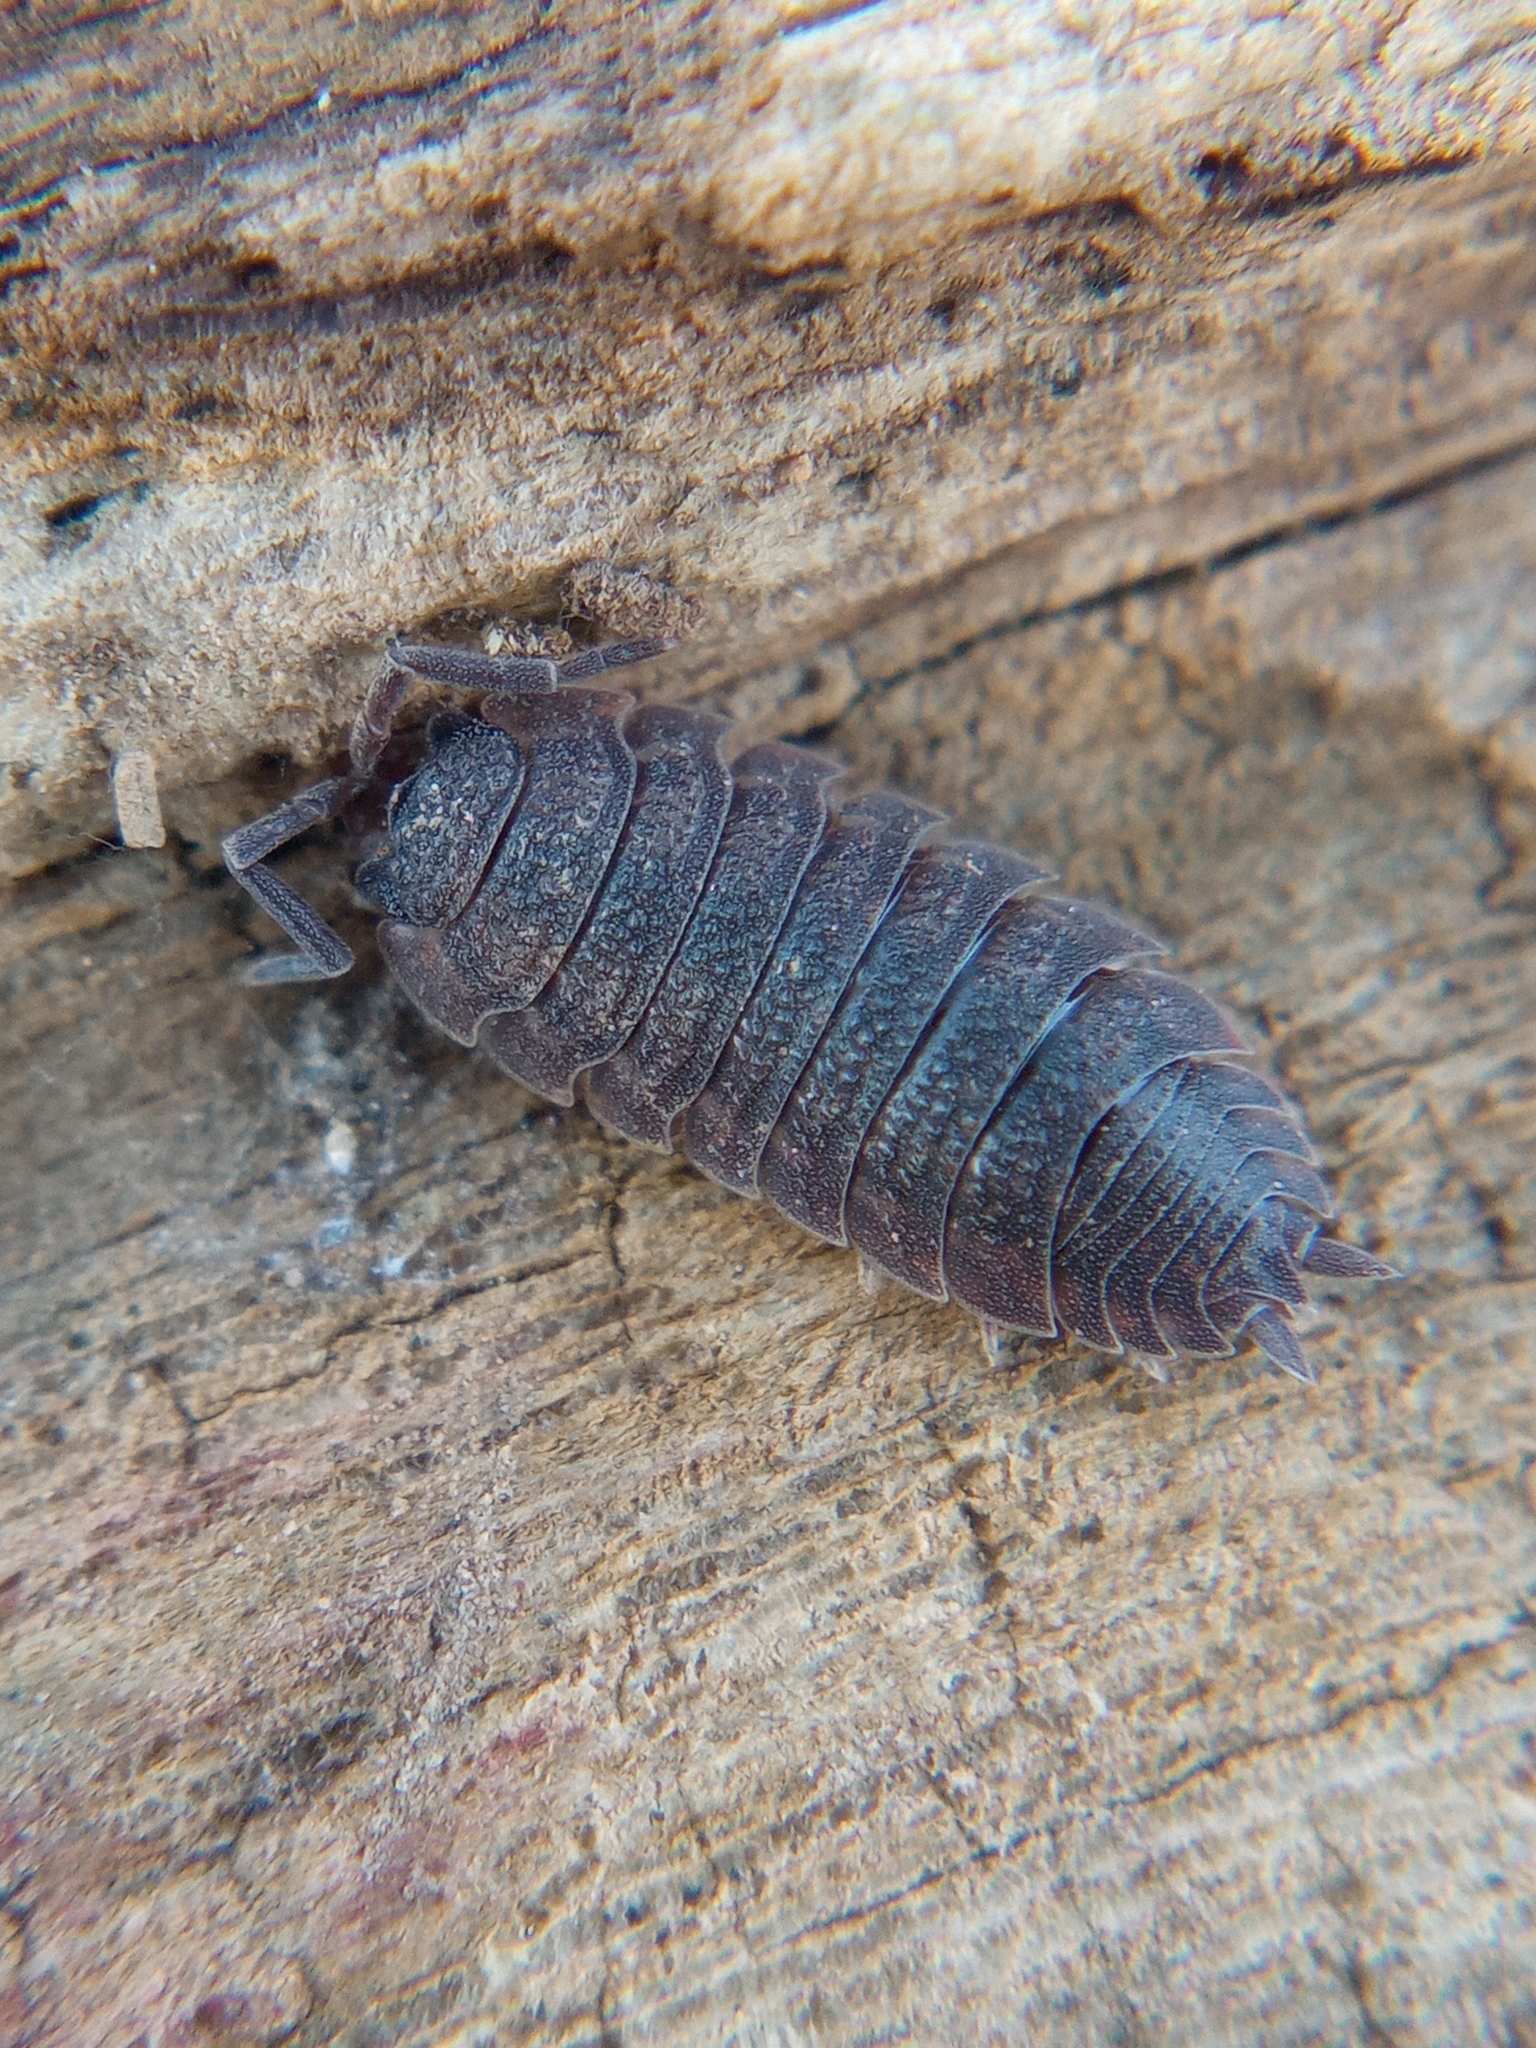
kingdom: Animalia
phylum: Arthropoda
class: Malacostraca
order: Isopoda
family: Porcellionidae
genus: Porcellio
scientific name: Porcellio scaber
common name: Common rough woodlouse
